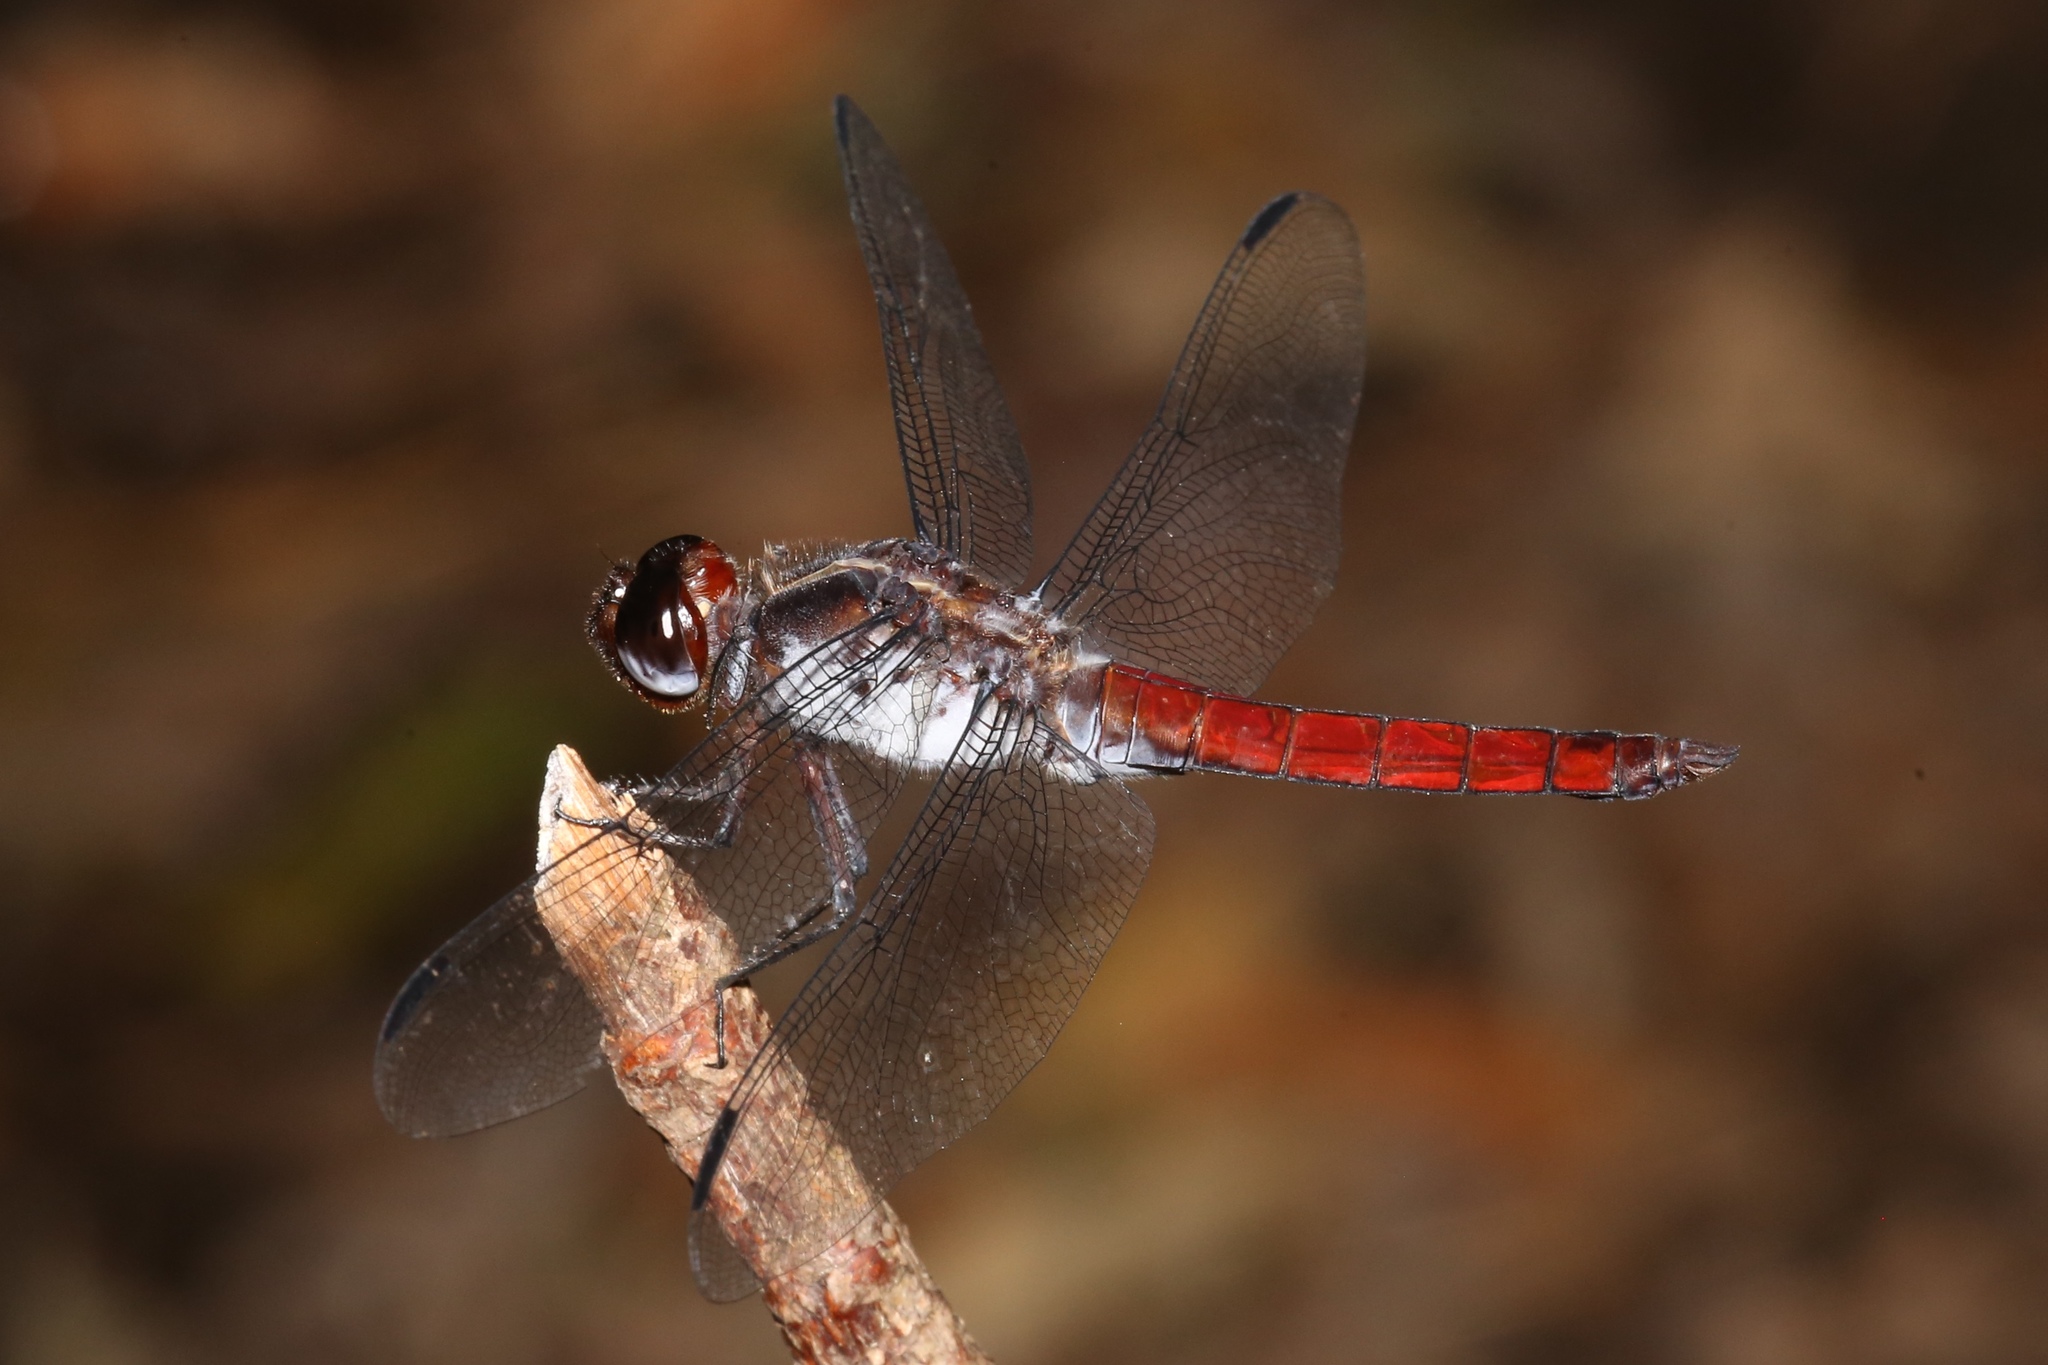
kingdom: Animalia
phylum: Arthropoda
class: Insecta
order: Odonata
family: Libellulidae
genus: Libellula
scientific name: Libellula herculea
